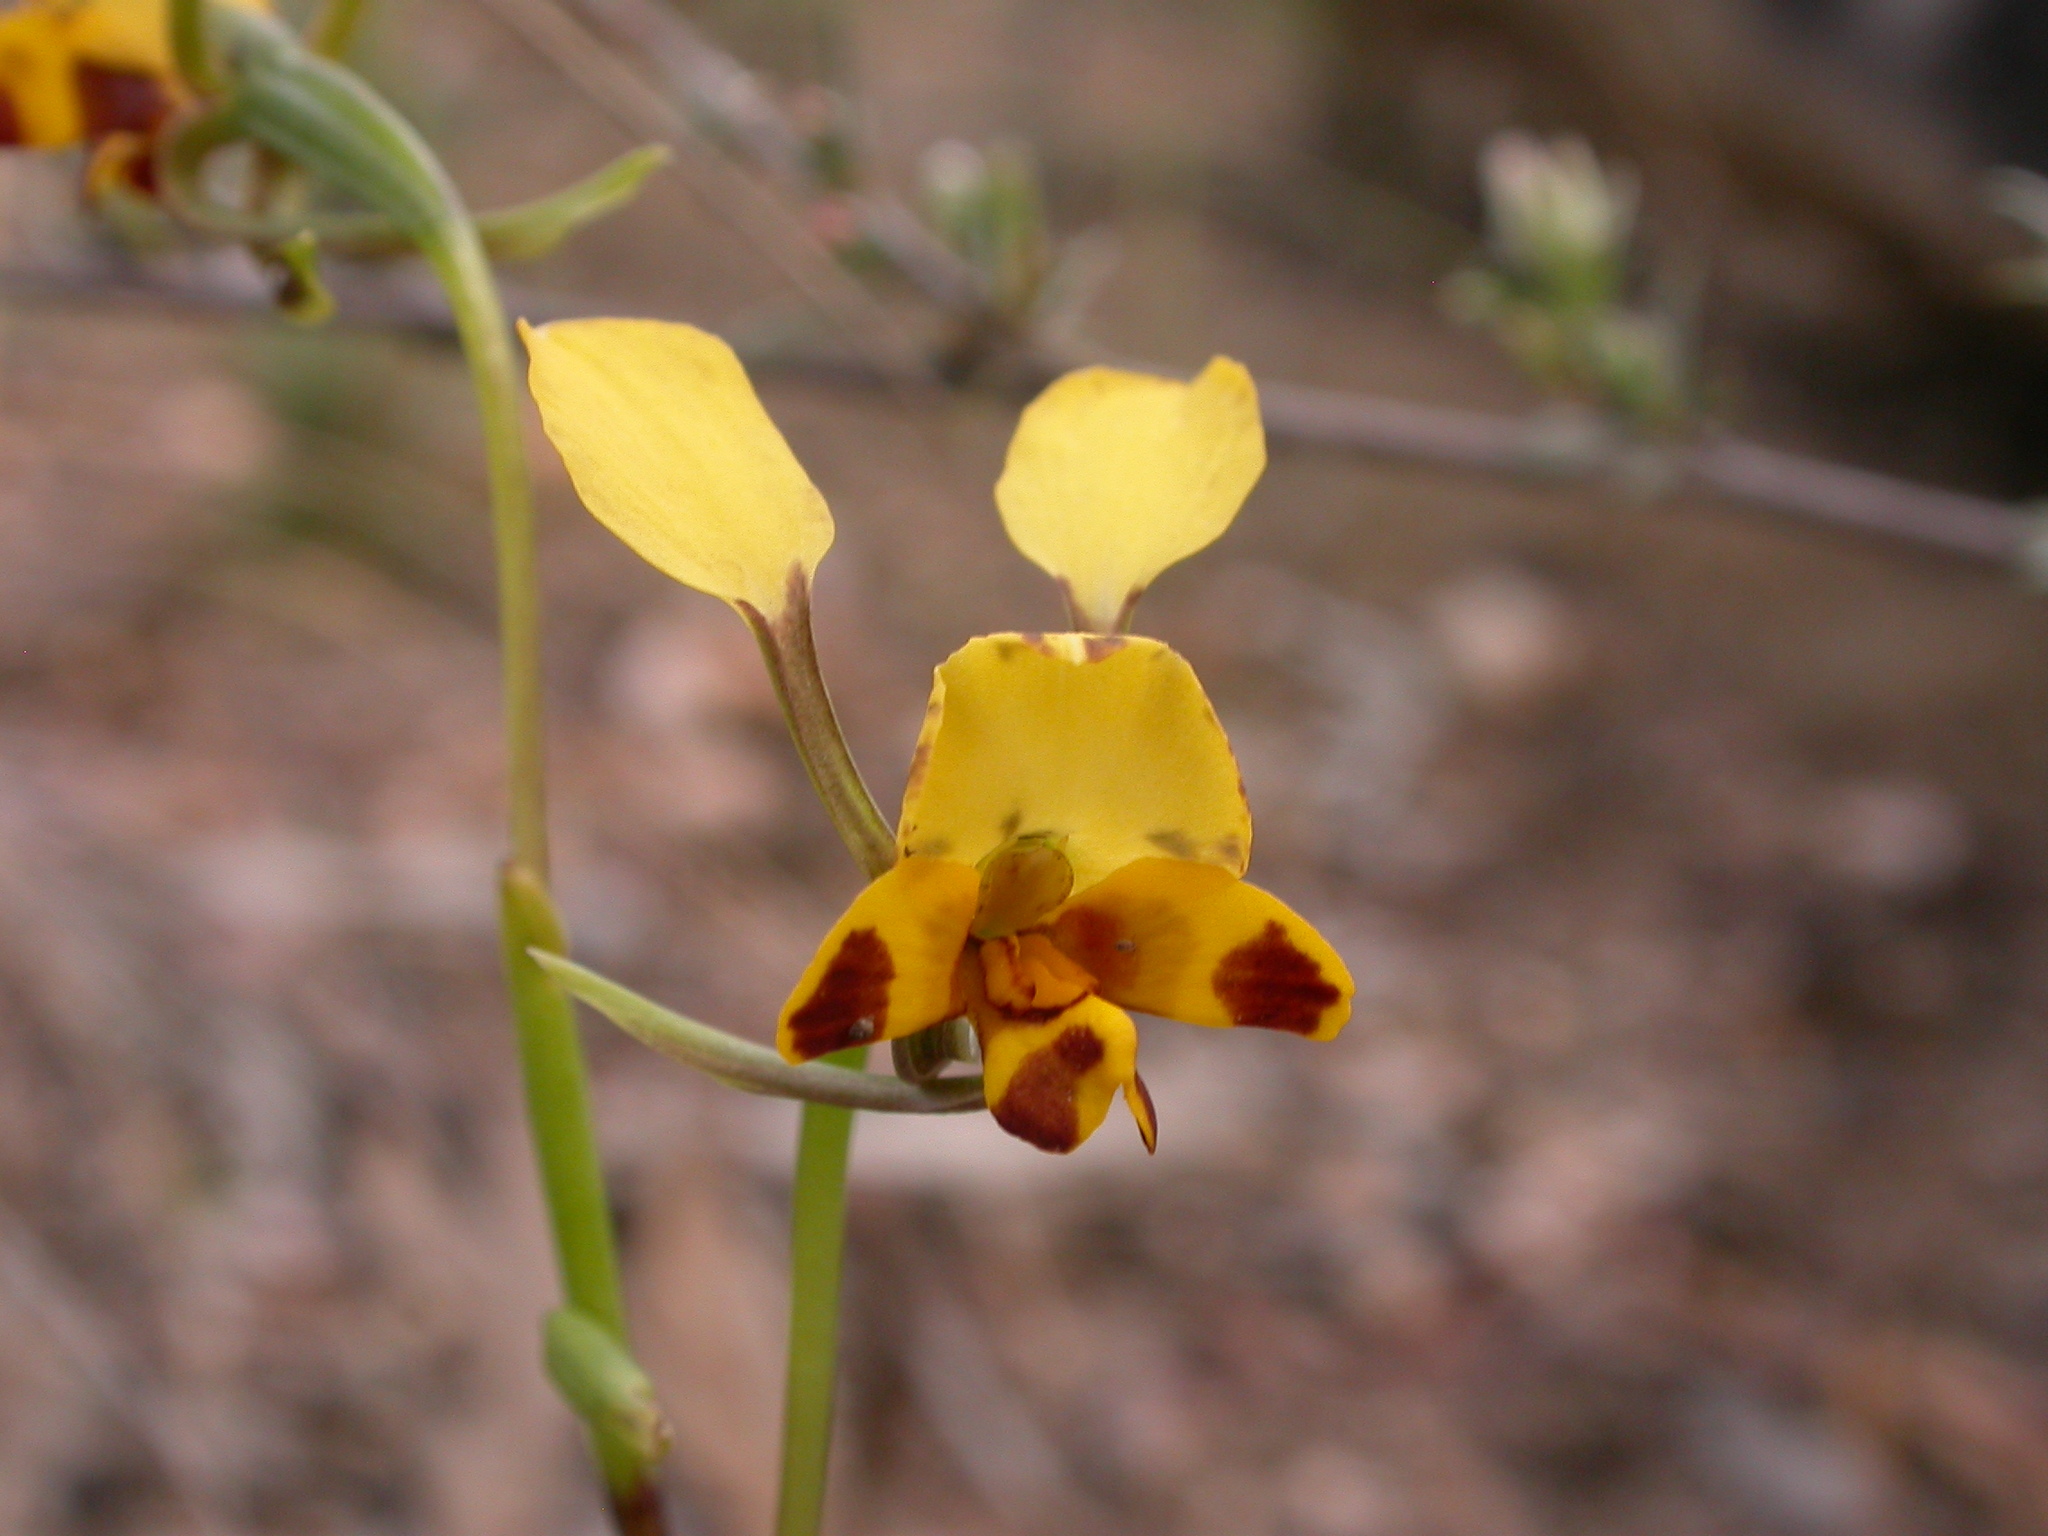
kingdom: Plantae
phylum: Tracheophyta
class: Liliopsida
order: Asparagales
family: Orchidaceae
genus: Diuris
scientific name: Diuris nigromontana
